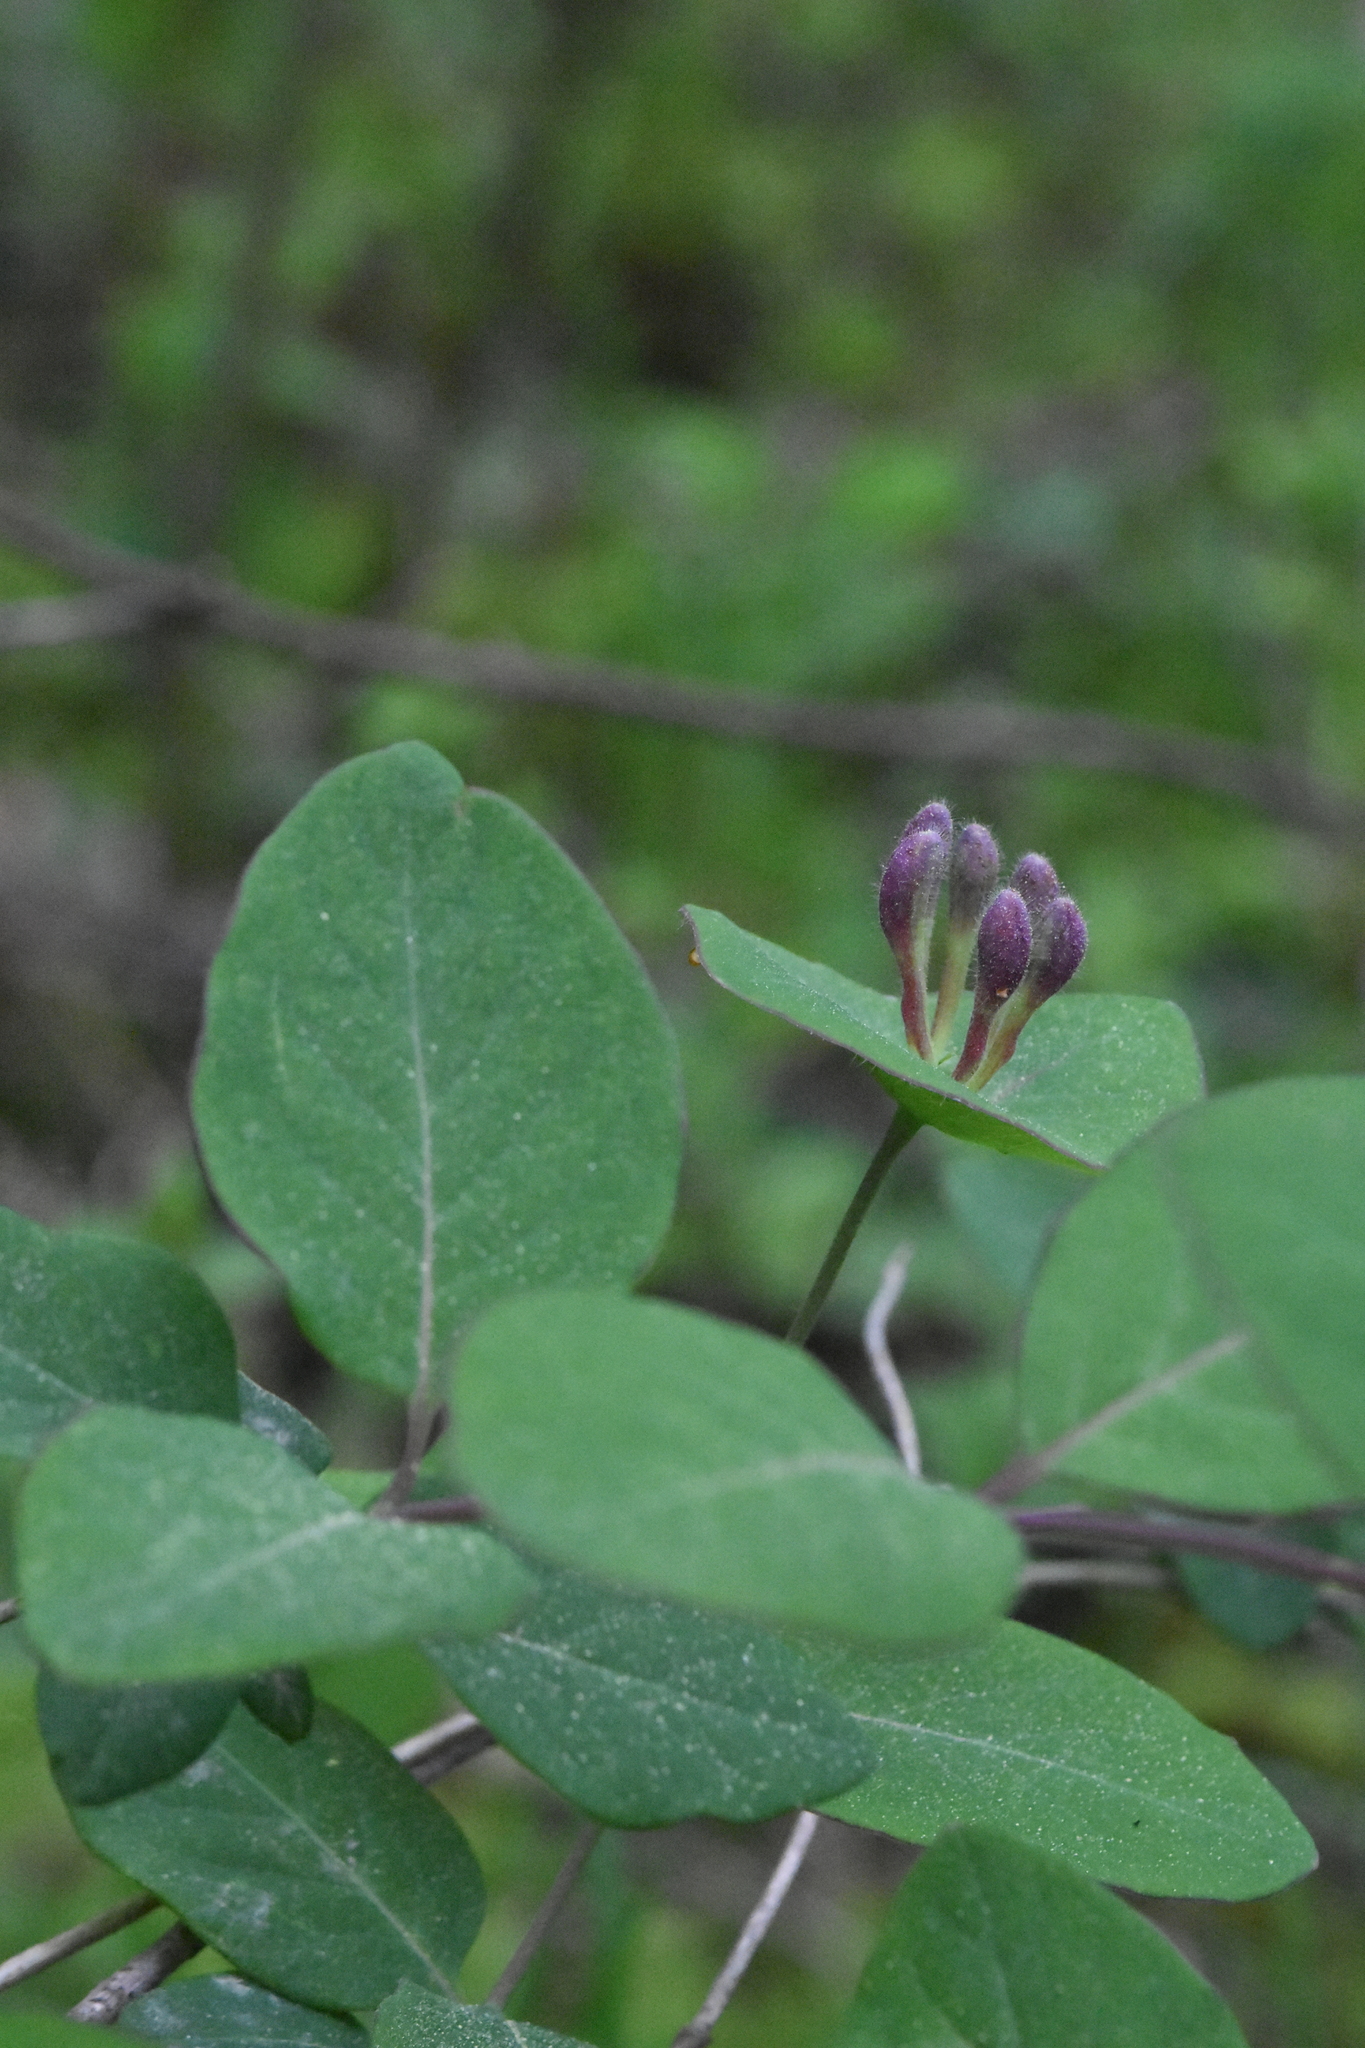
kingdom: Plantae
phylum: Tracheophyta
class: Magnoliopsida
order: Dipsacales
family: Caprifoliaceae
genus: Lonicera
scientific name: Lonicera caprifolium
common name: Perfoliate honeysuckle
